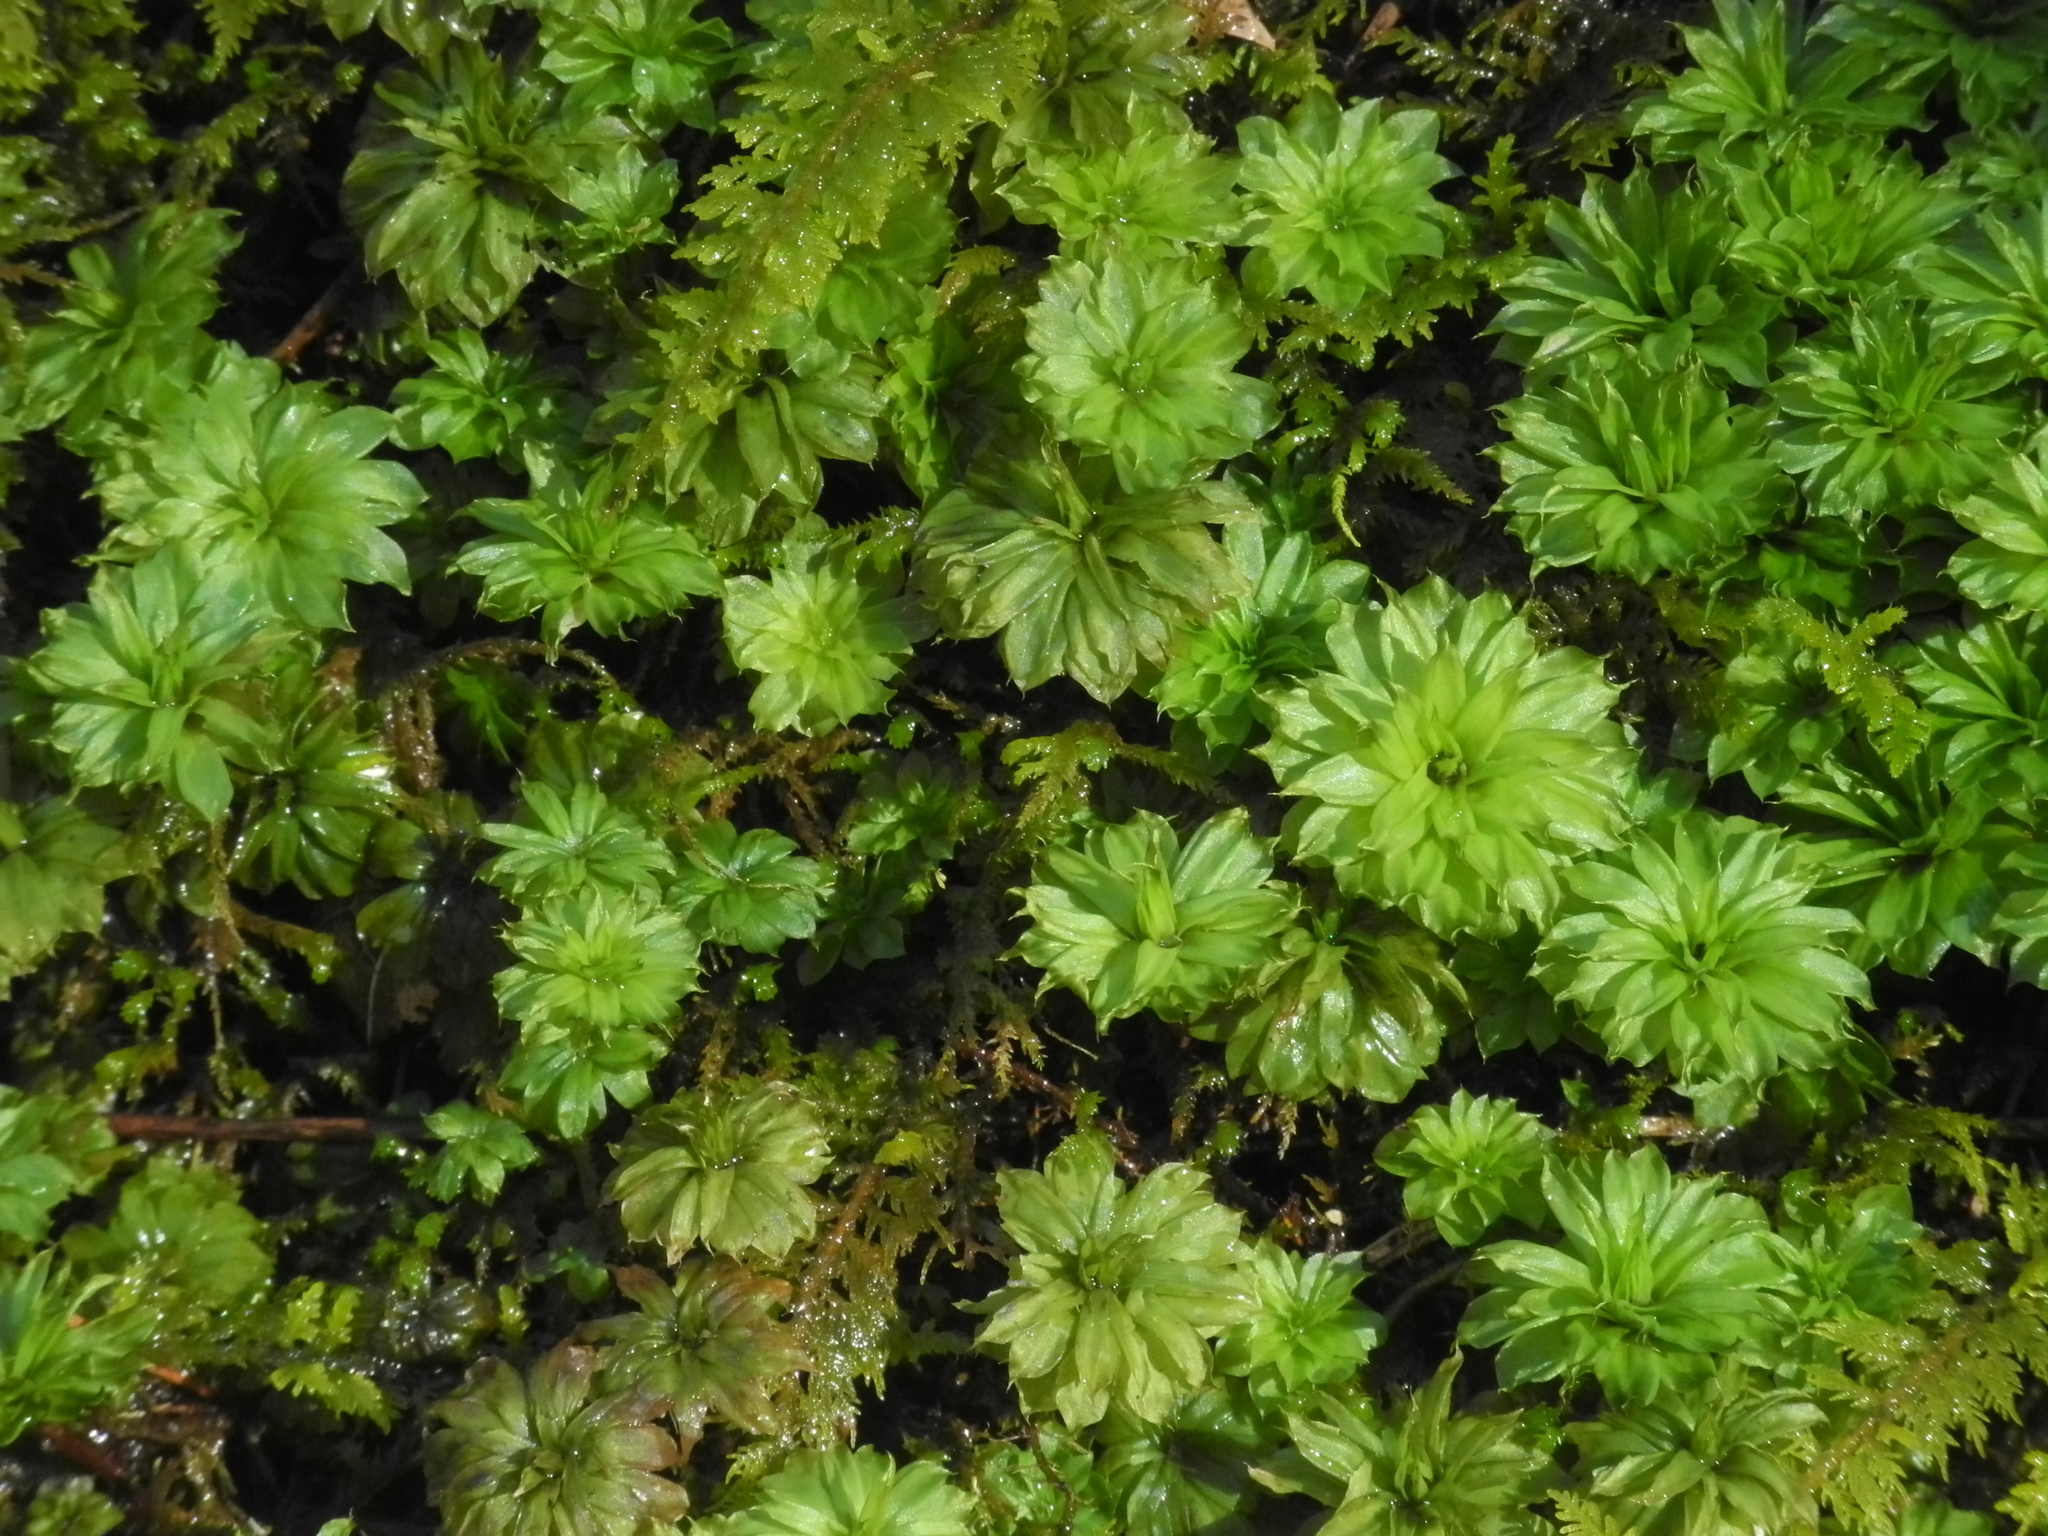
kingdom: Plantae
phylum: Bryophyta
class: Bryopsida
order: Bryales
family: Bryaceae
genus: Rhodobryum
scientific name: Rhodobryum ontariense
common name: Ontario rhodobryum moss
